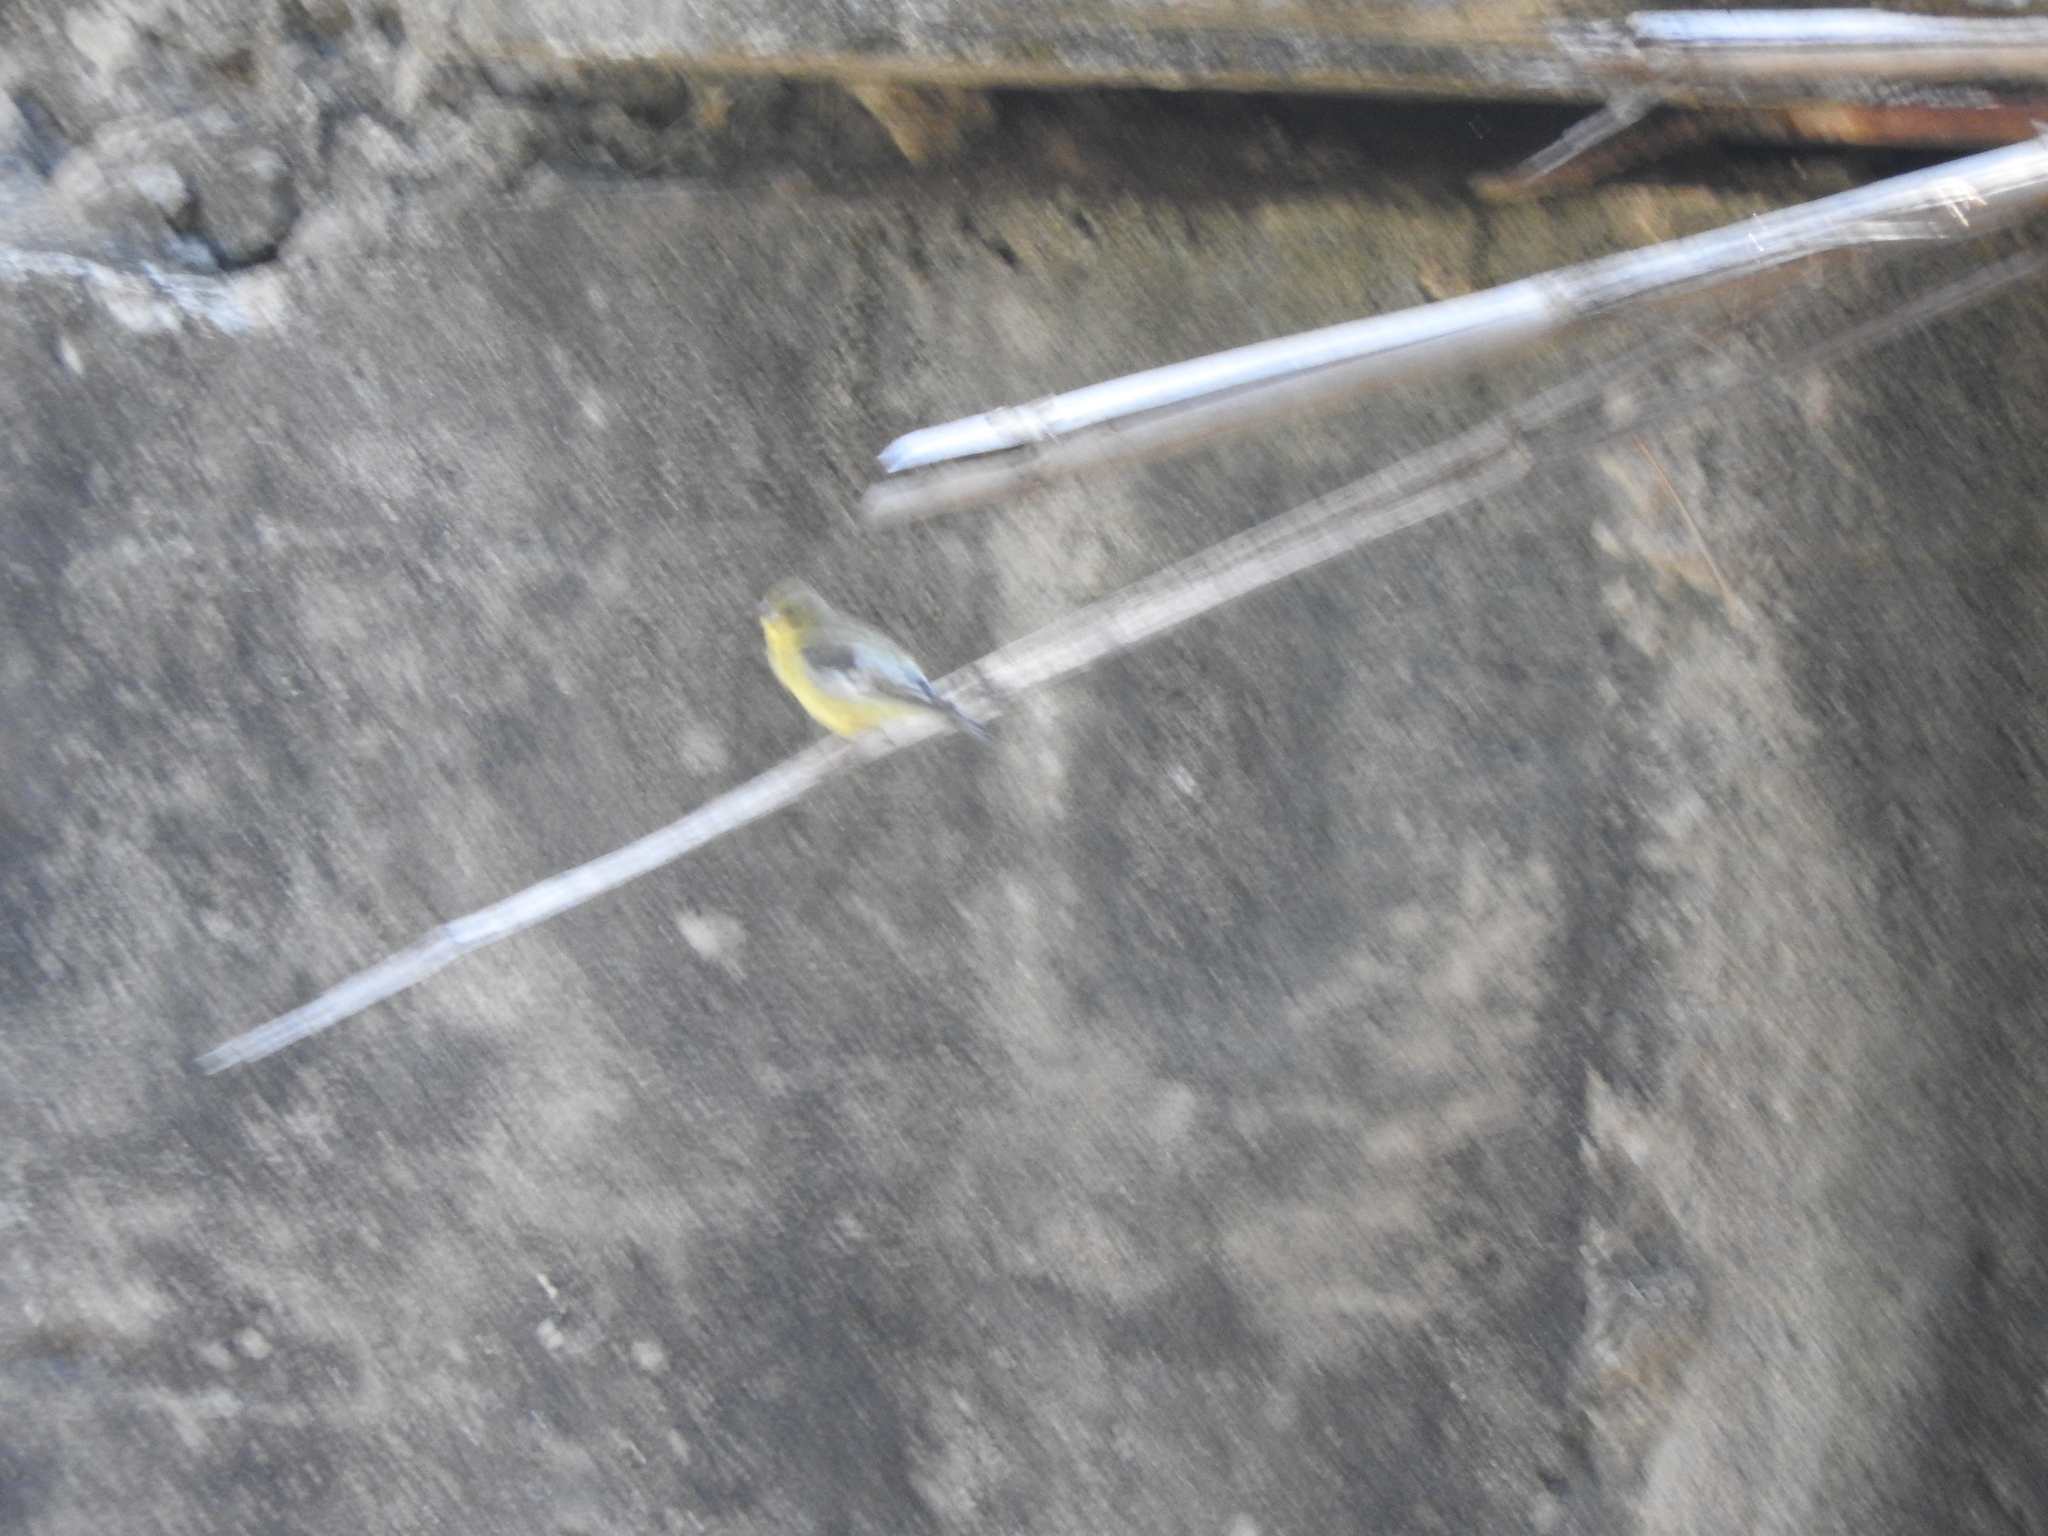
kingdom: Animalia
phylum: Chordata
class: Aves
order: Passeriformes
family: Fringillidae
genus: Spinus
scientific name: Spinus psaltria
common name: Lesser goldfinch
